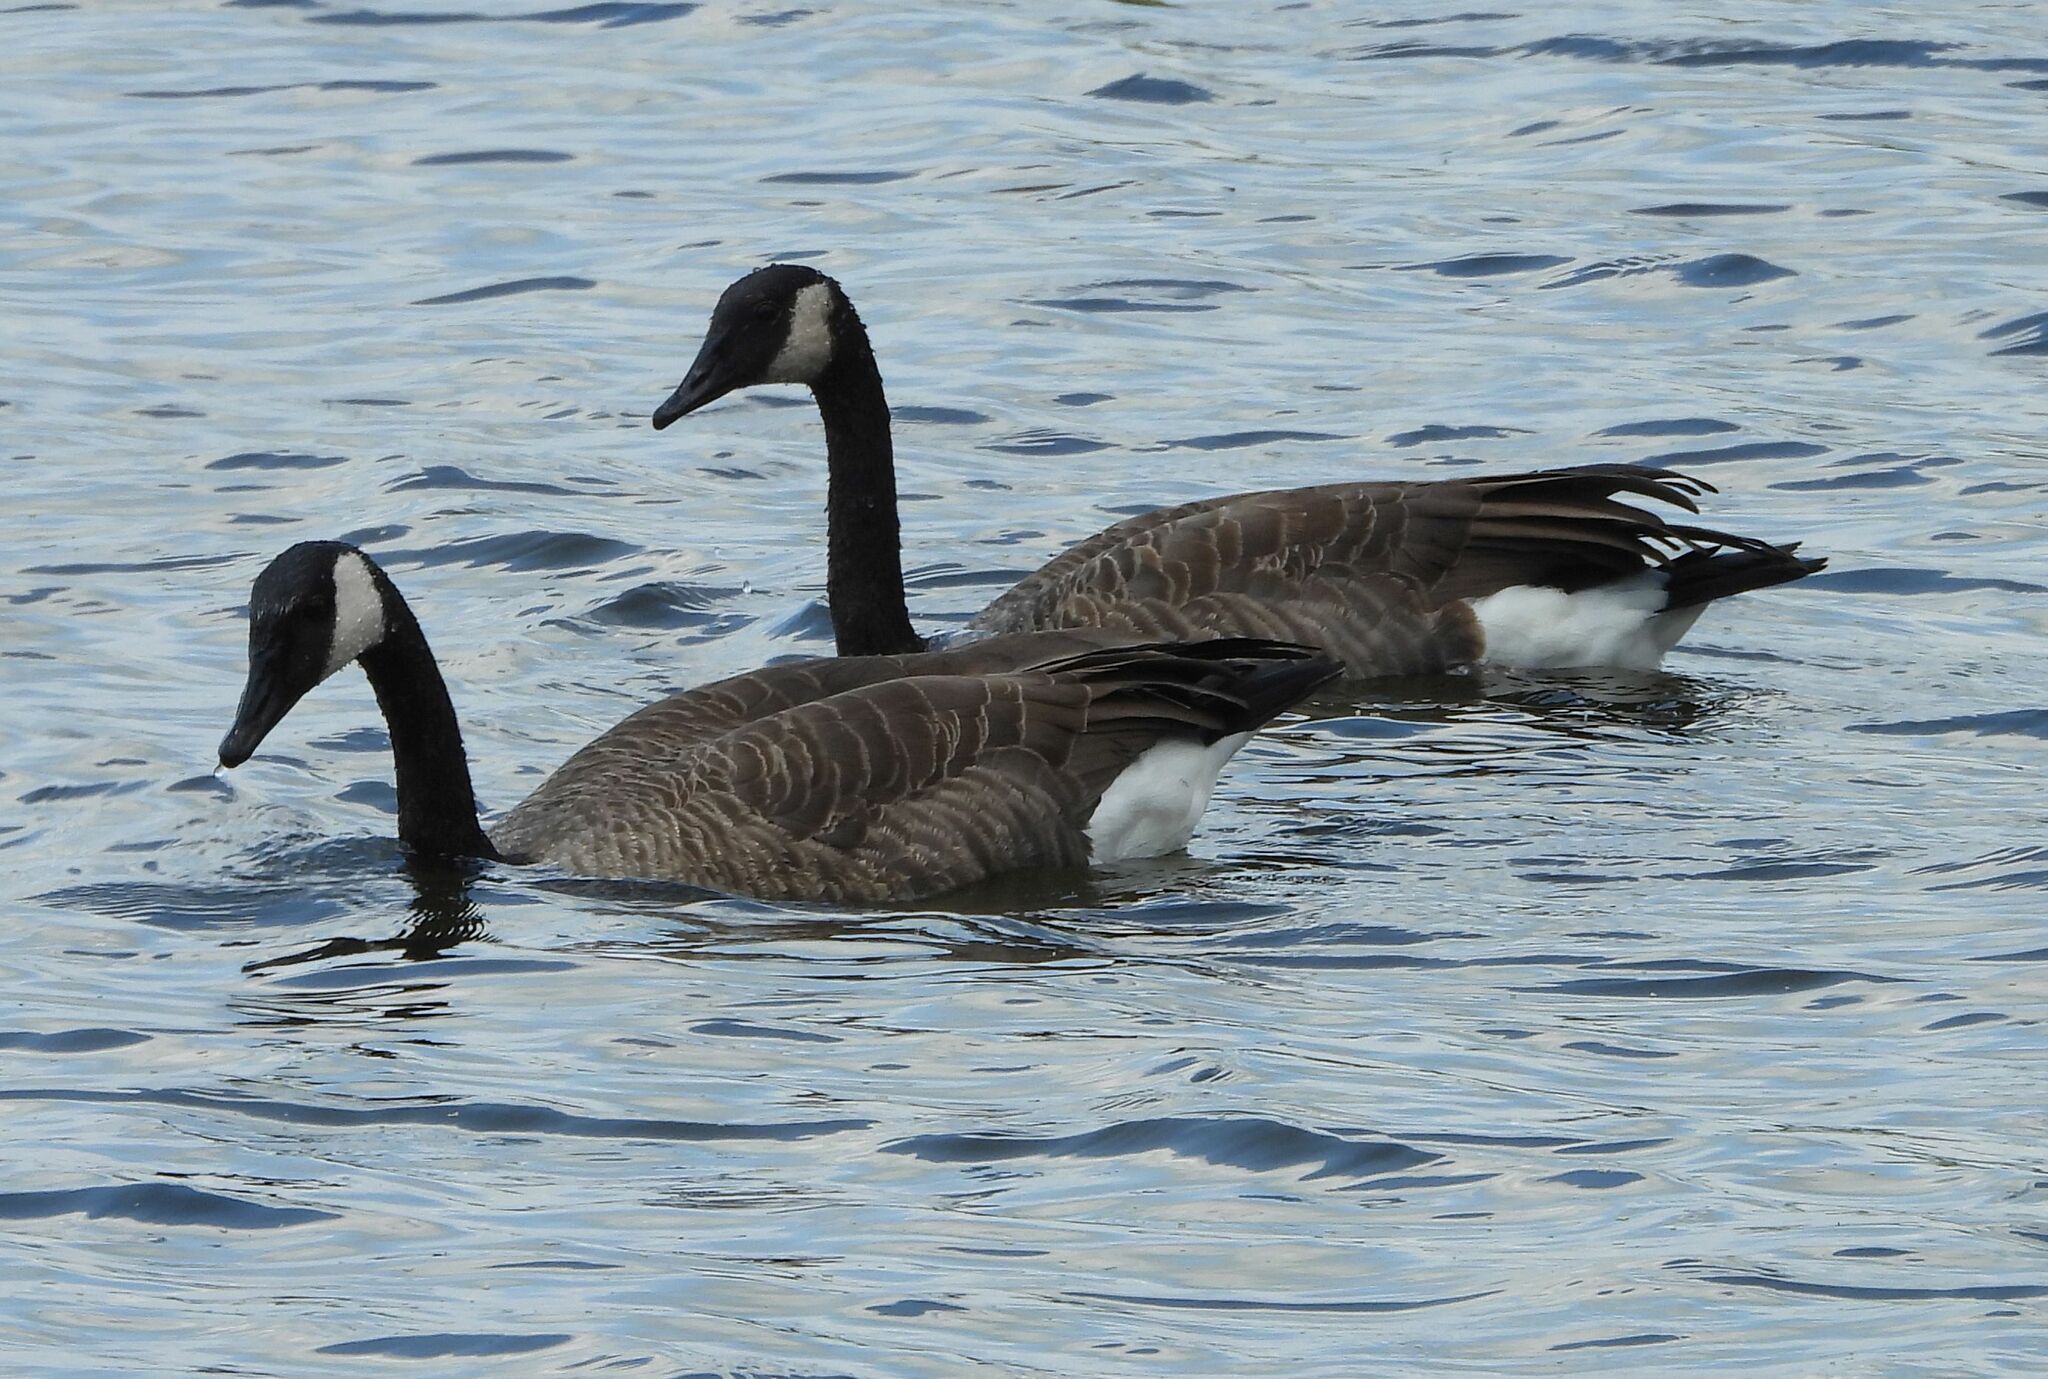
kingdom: Animalia
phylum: Chordata
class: Aves
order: Anseriformes
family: Anatidae
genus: Branta
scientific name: Branta canadensis
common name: Canada goose
